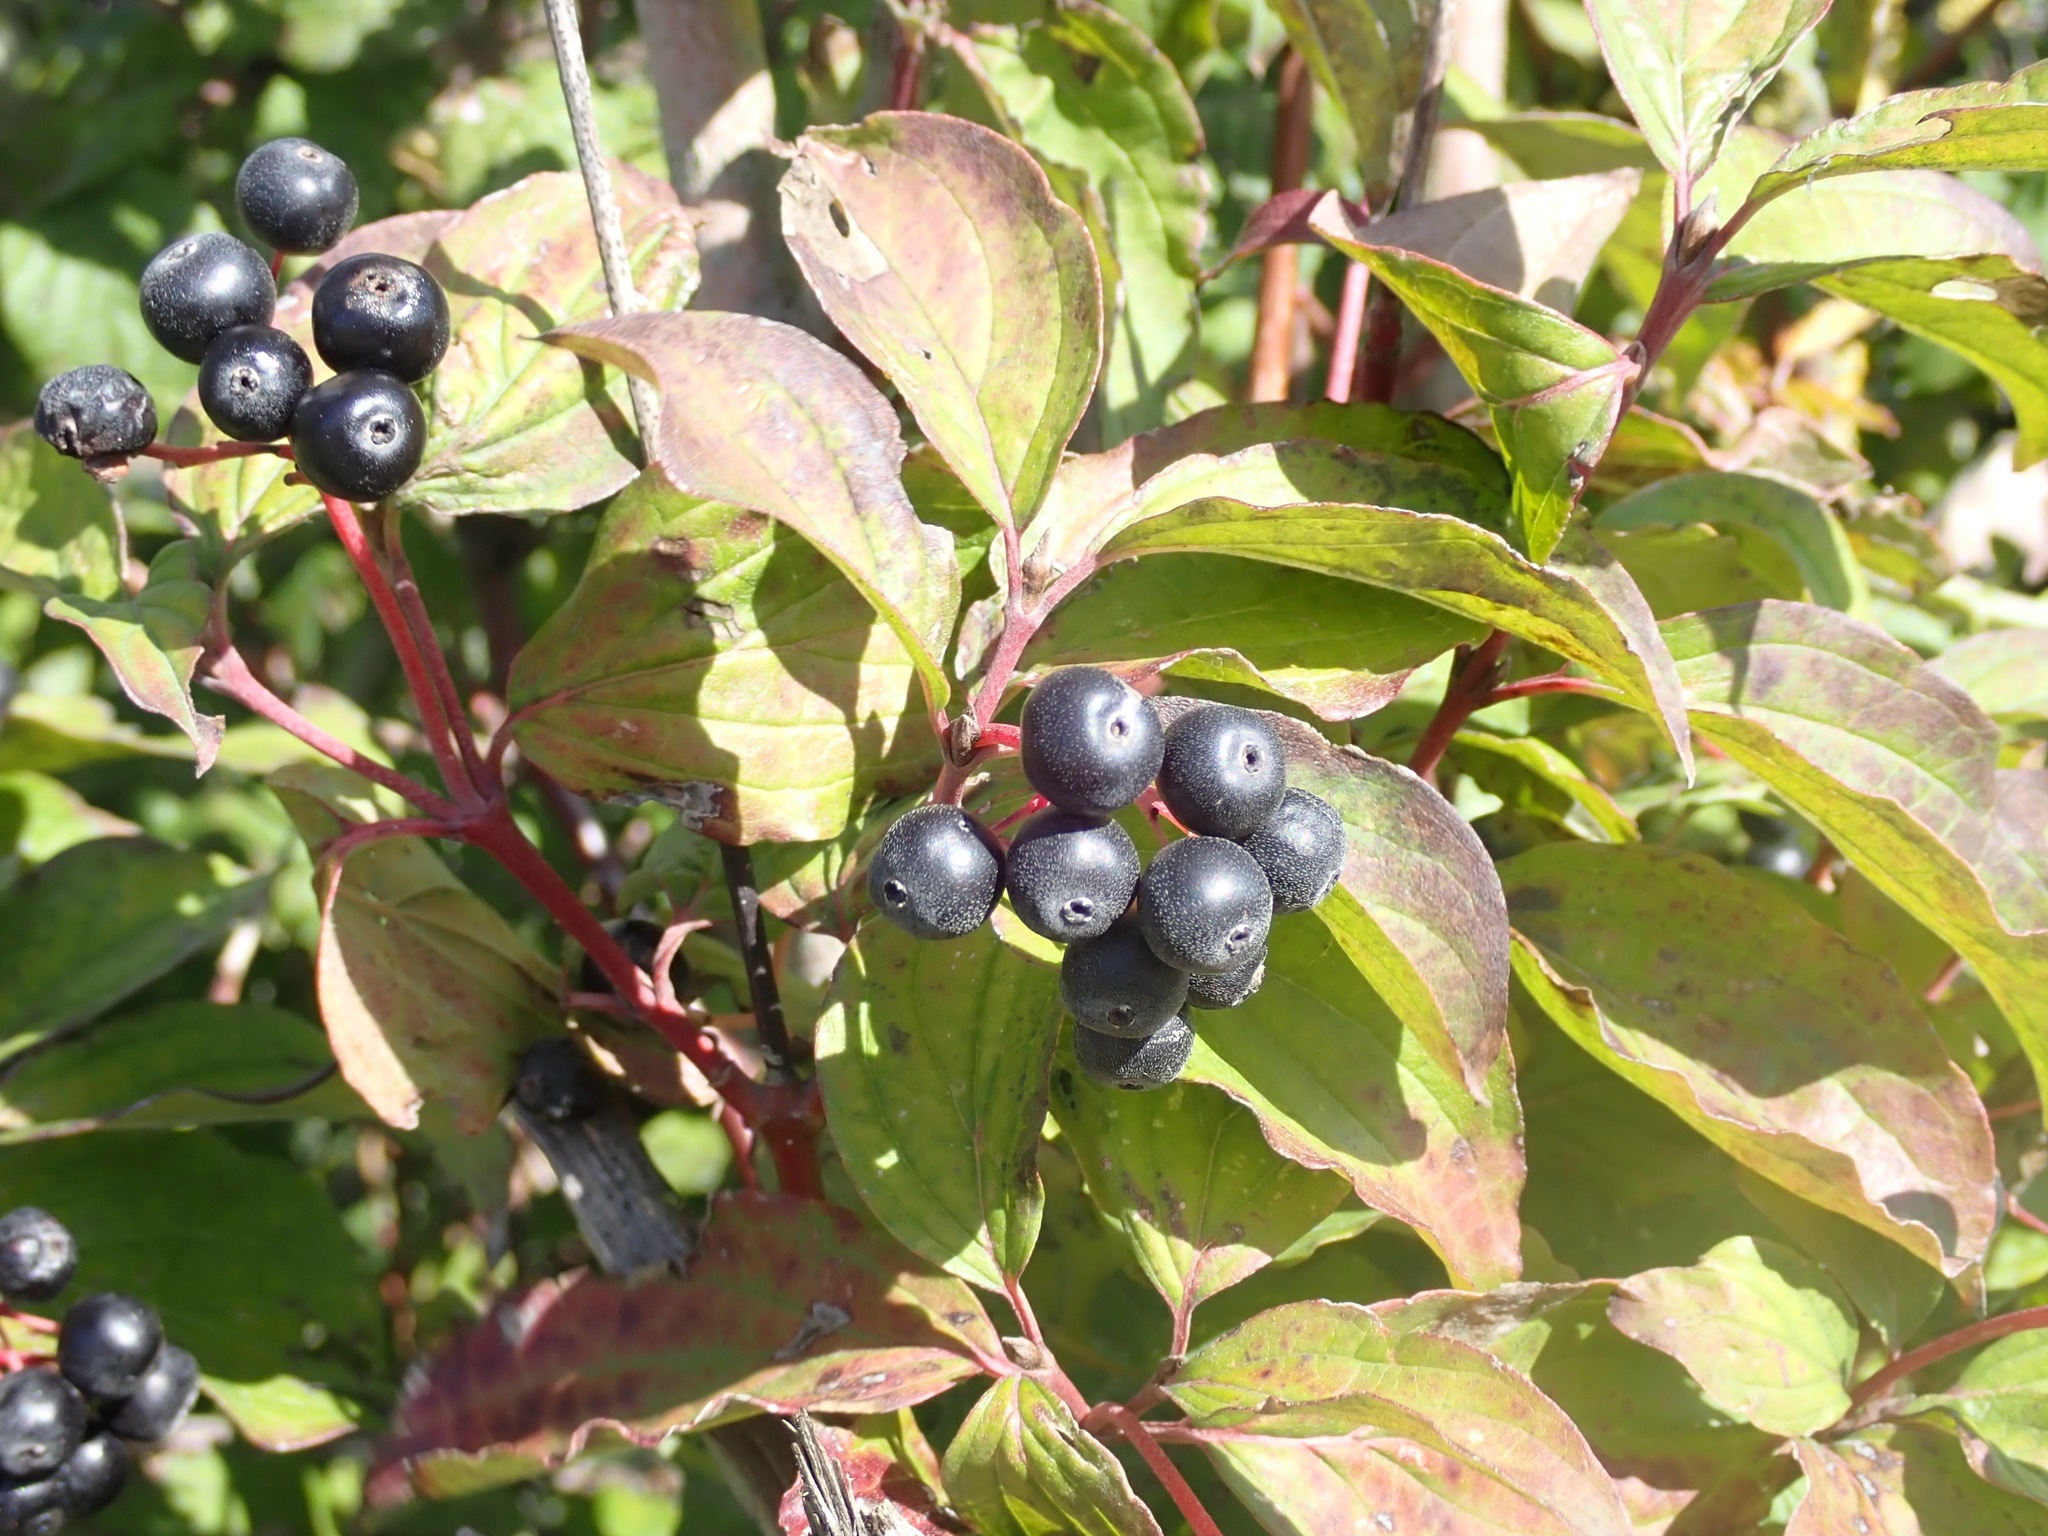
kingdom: Plantae
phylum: Tracheophyta
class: Magnoliopsida
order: Cornales
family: Cornaceae
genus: Cornus
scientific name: Cornus sanguinea
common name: Dogwood
